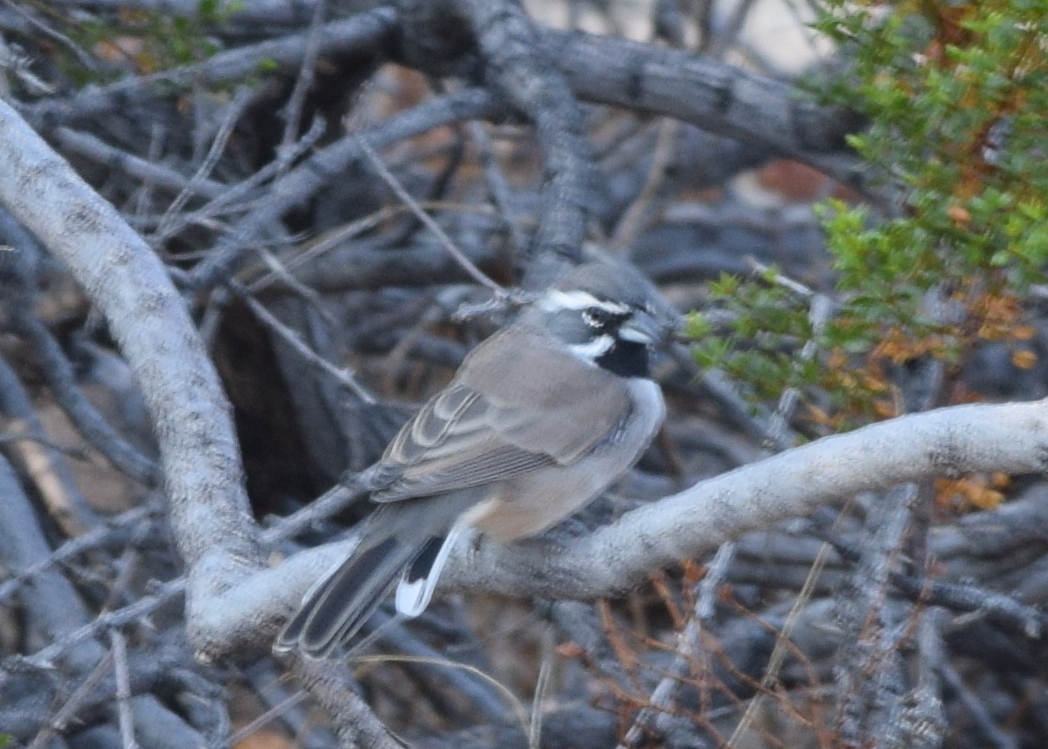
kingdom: Animalia
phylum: Chordata
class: Aves
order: Passeriformes
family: Passerellidae
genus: Amphispiza
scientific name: Amphispiza bilineata
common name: Black-throated sparrow
